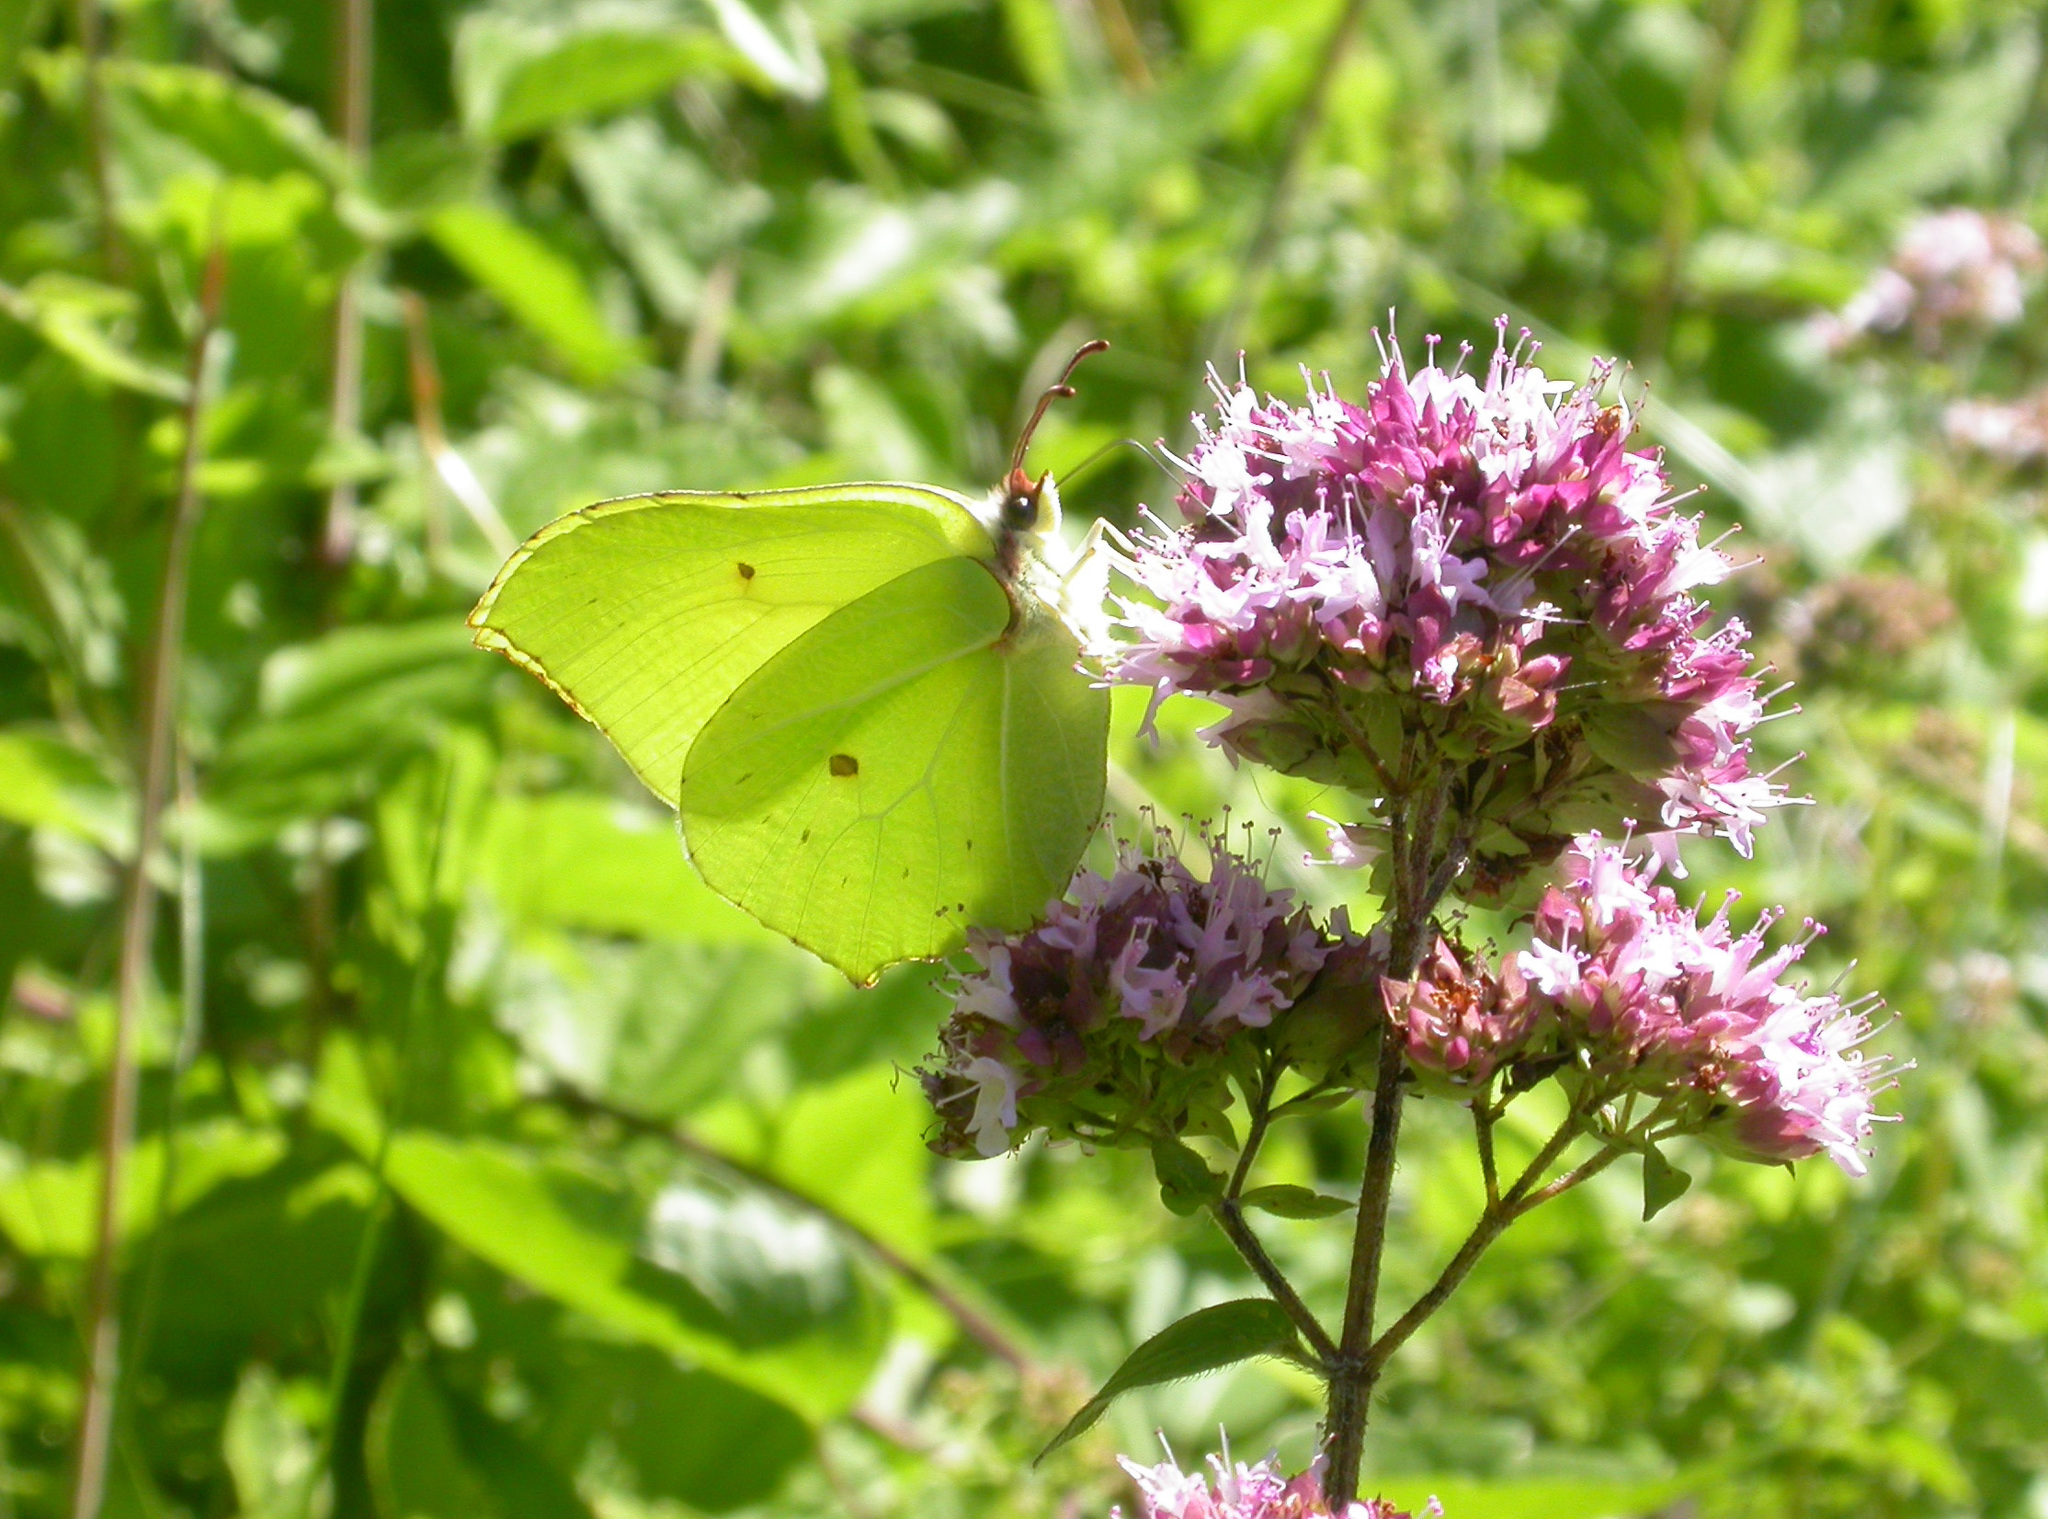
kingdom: Animalia
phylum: Arthropoda
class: Insecta
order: Lepidoptera
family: Pieridae
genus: Gonepteryx
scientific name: Gonepteryx rhamni
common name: Brimstone
